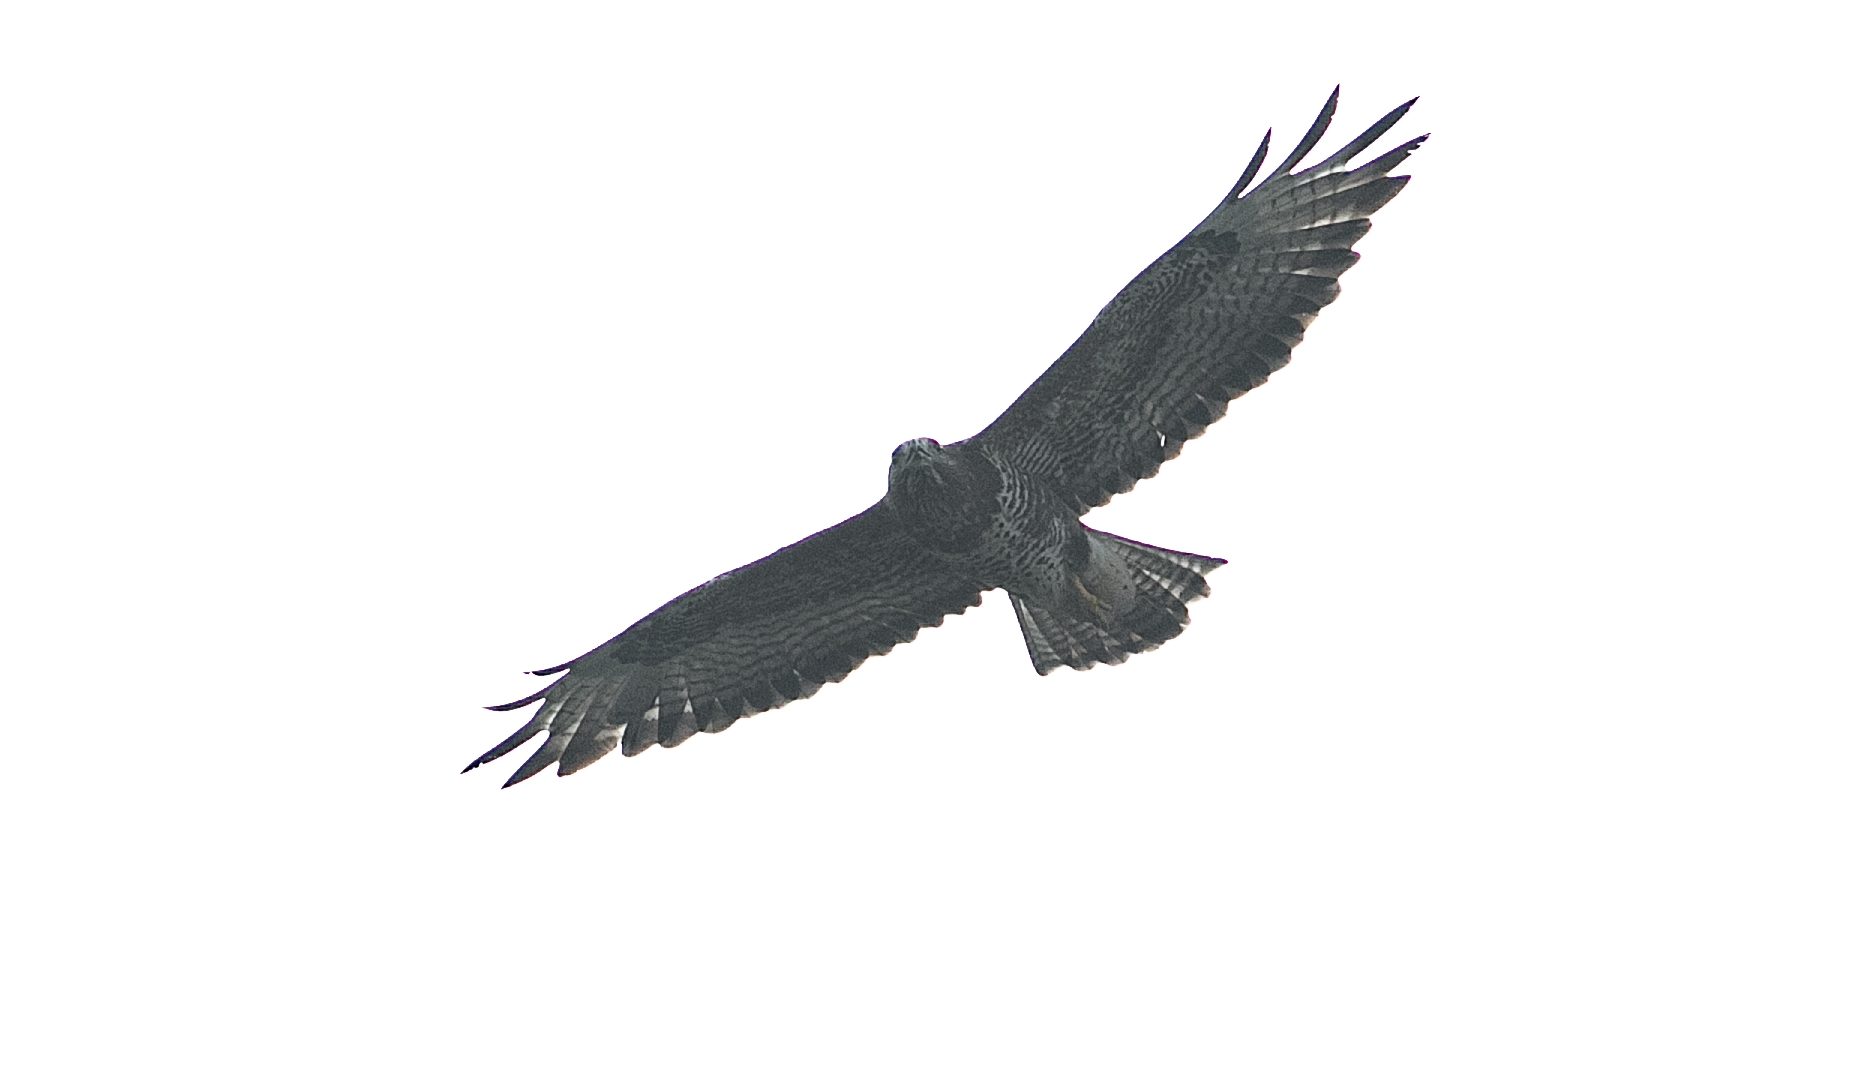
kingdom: Animalia
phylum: Chordata
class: Aves
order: Accipitriformes
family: Accipitridae
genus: Buteo
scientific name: Buteo buteo
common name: Common buzzard
